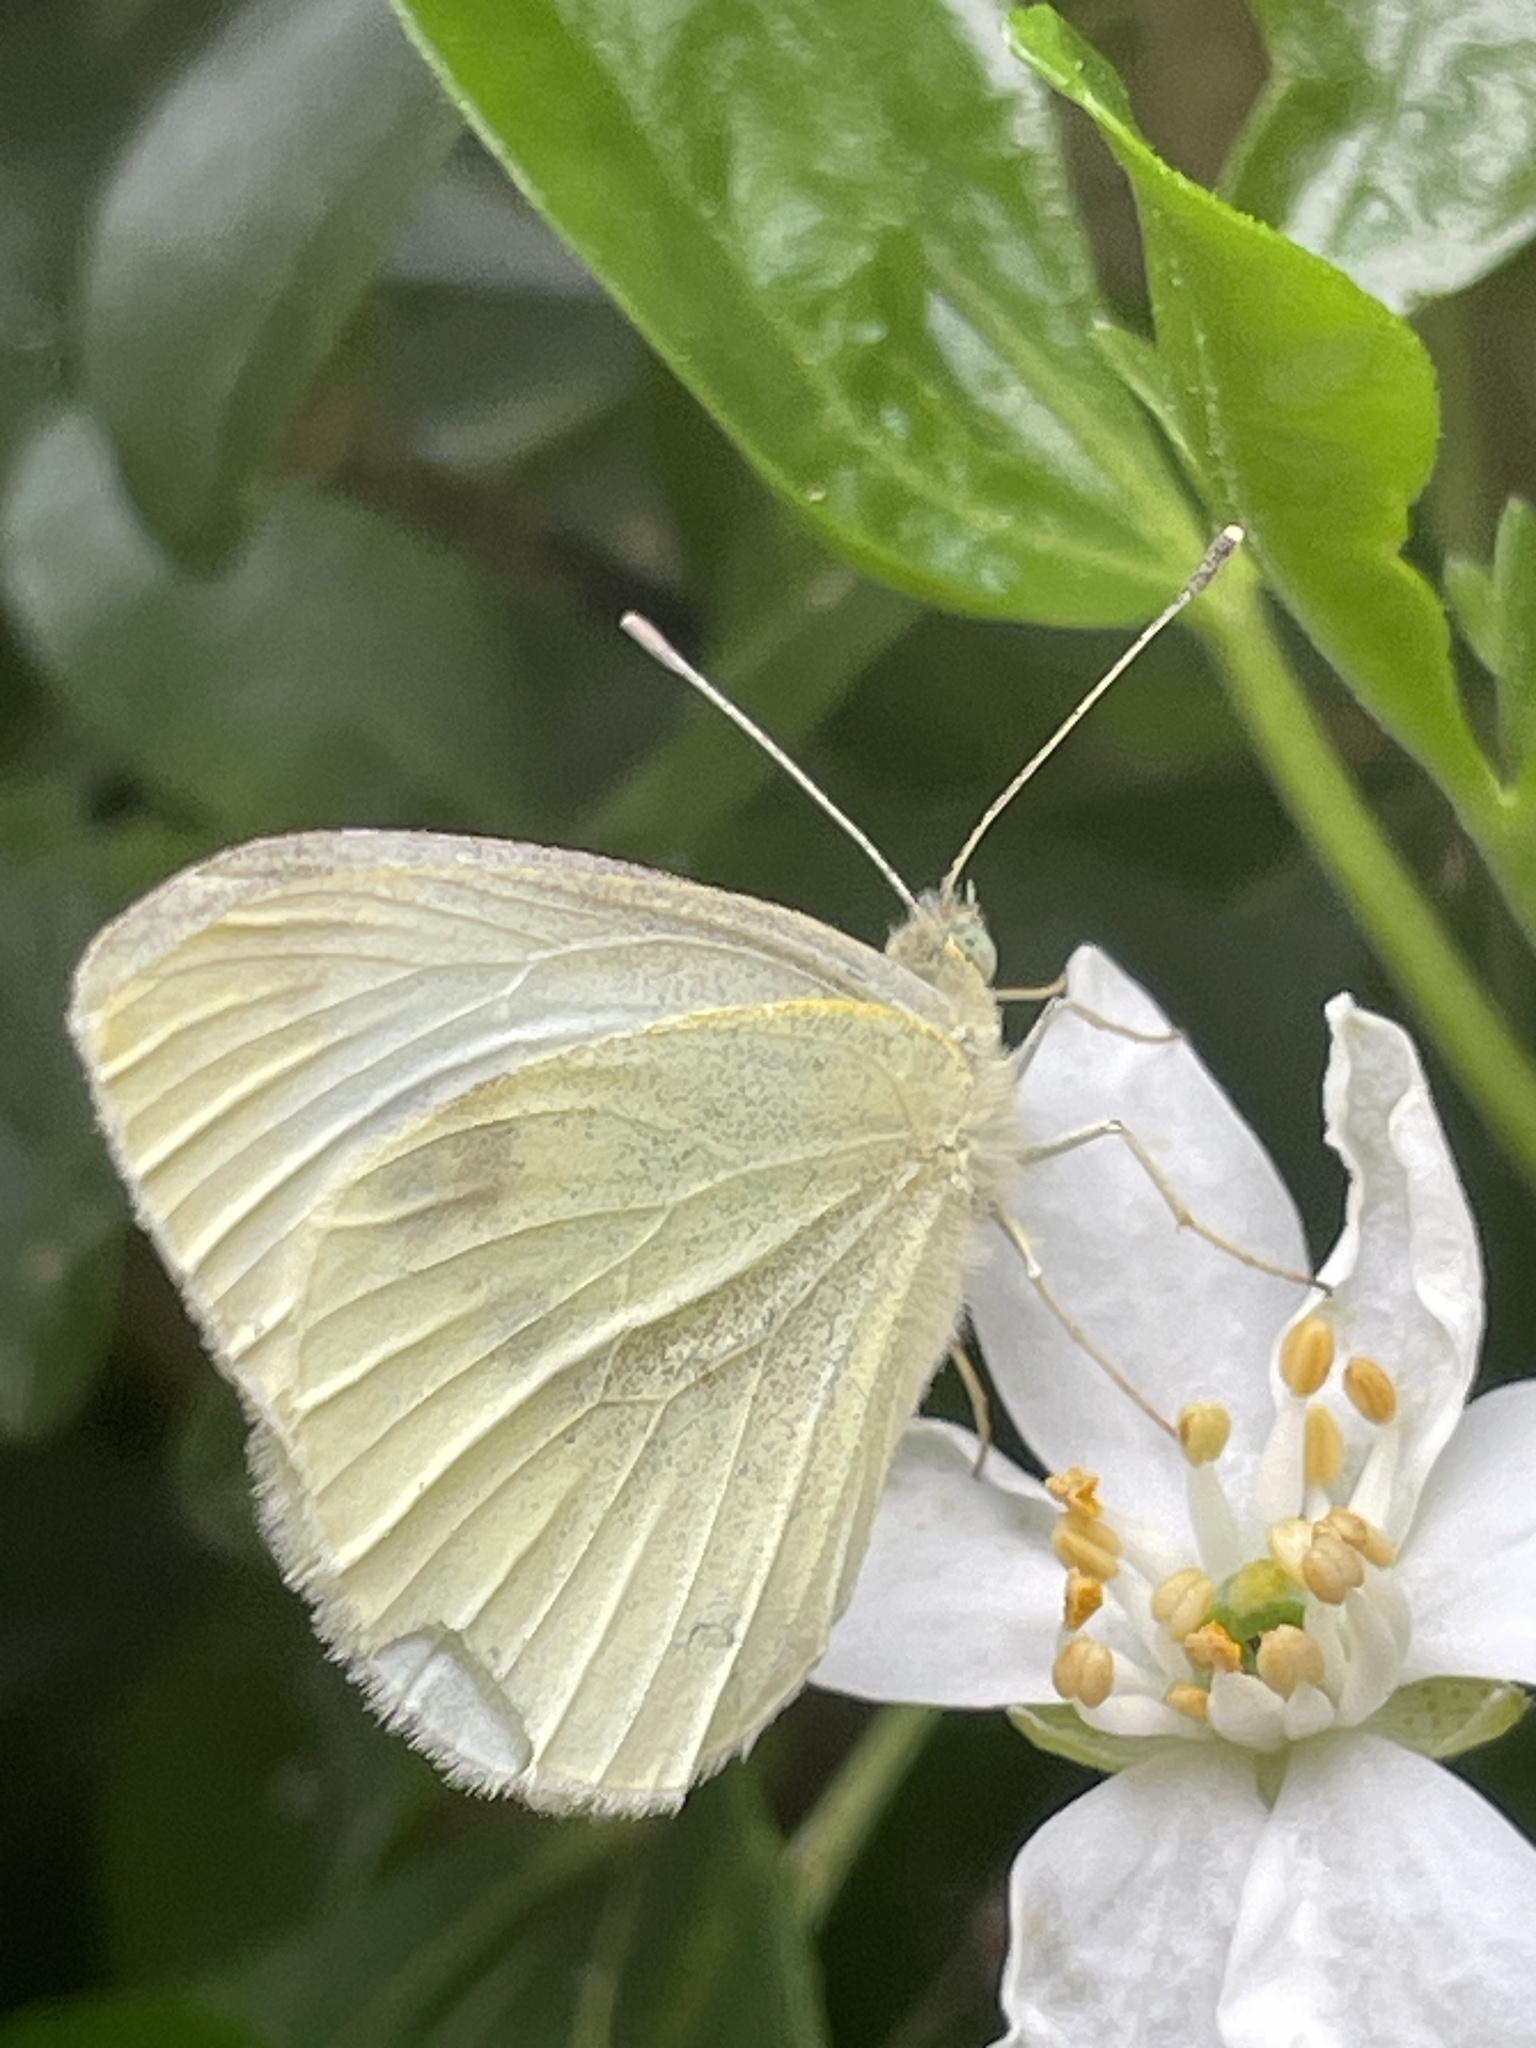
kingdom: Animalia
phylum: Arthropoda
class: Insecta
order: Lepidoptera
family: Pieridae
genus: Pieris
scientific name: Pieris rapae
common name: Small white
